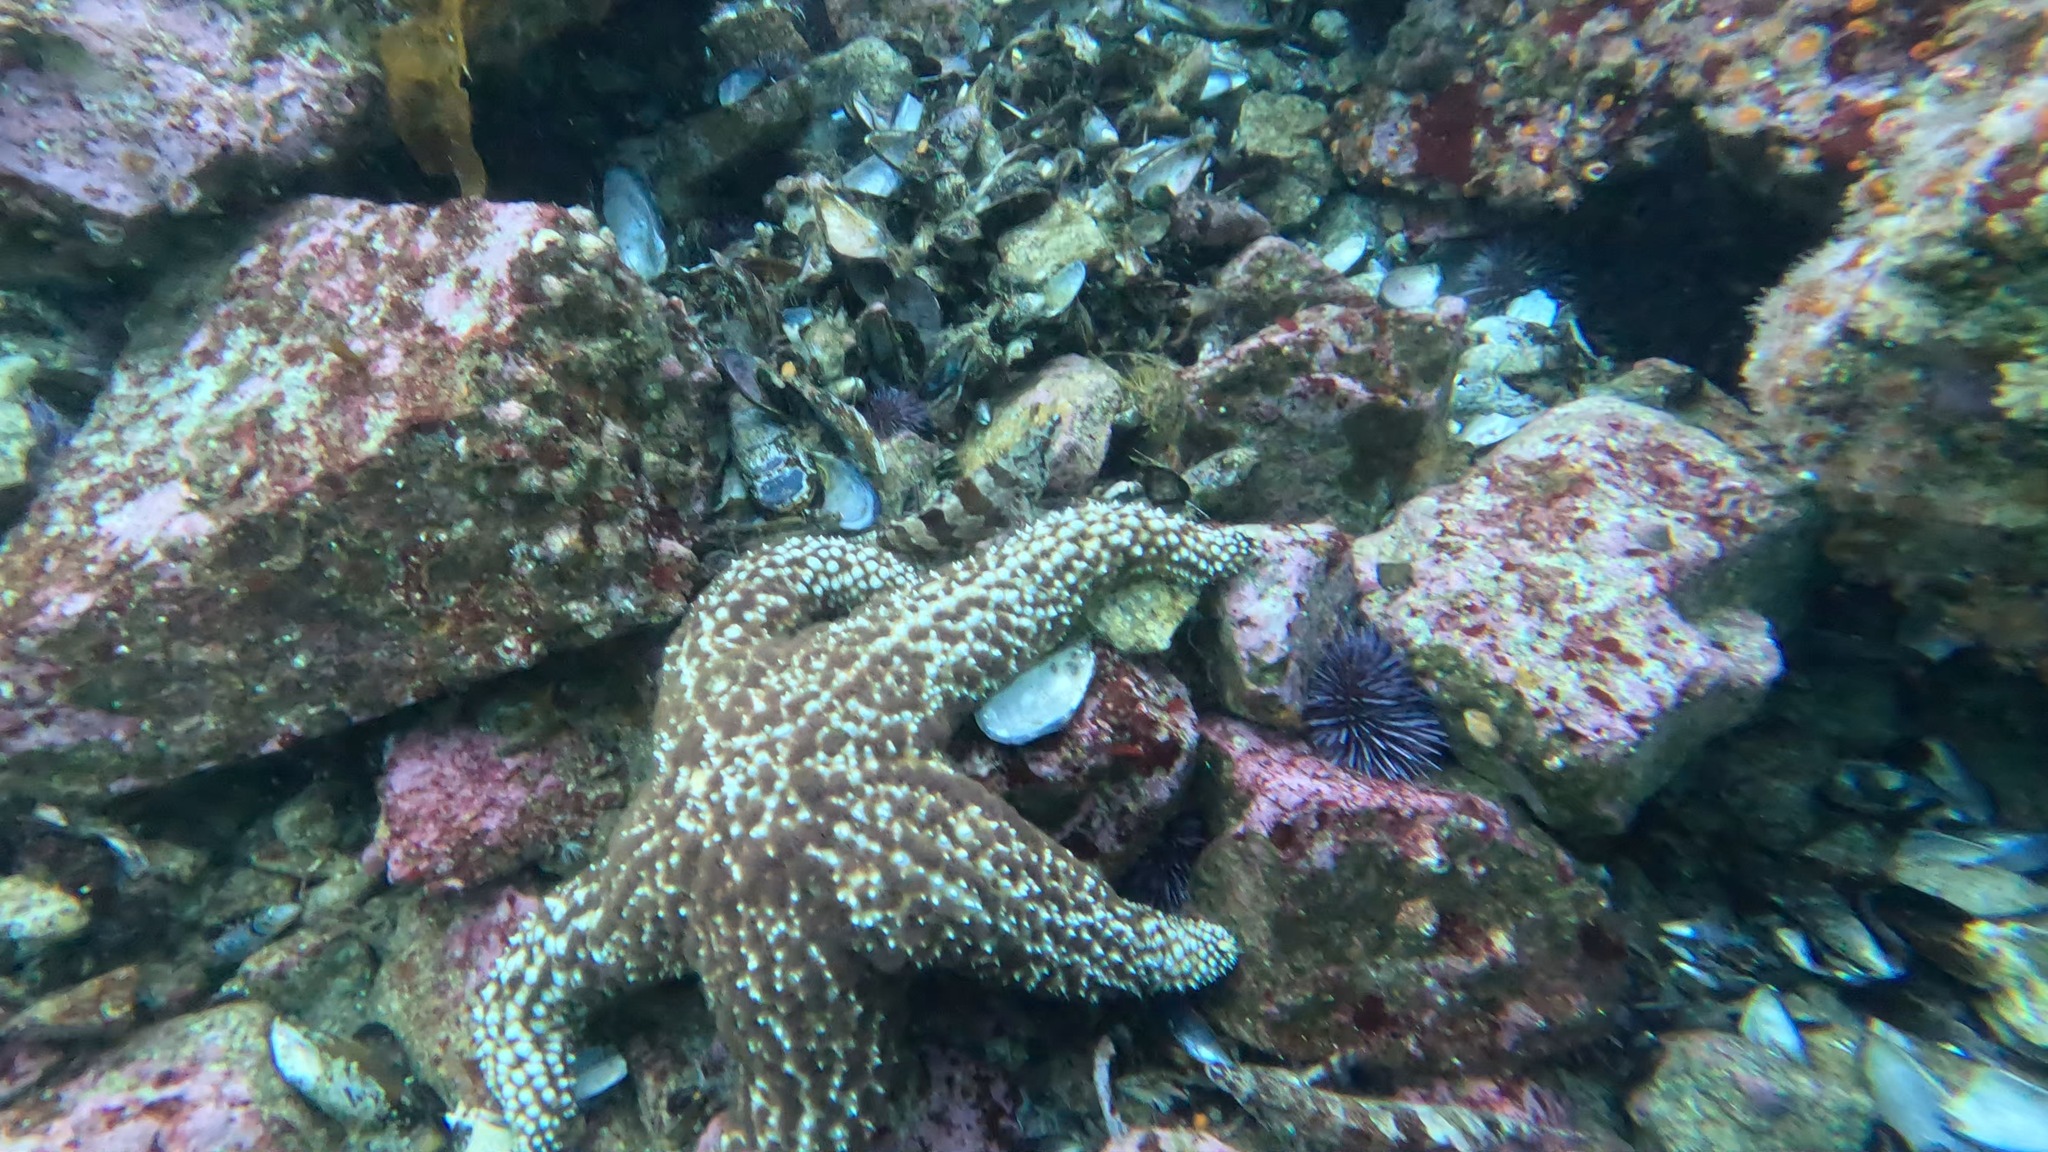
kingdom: Animalia
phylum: Echinodermata
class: Asteroidea
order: Forcipulatida
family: Asteriidae
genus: Pisaster
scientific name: Pisaster giganteus
